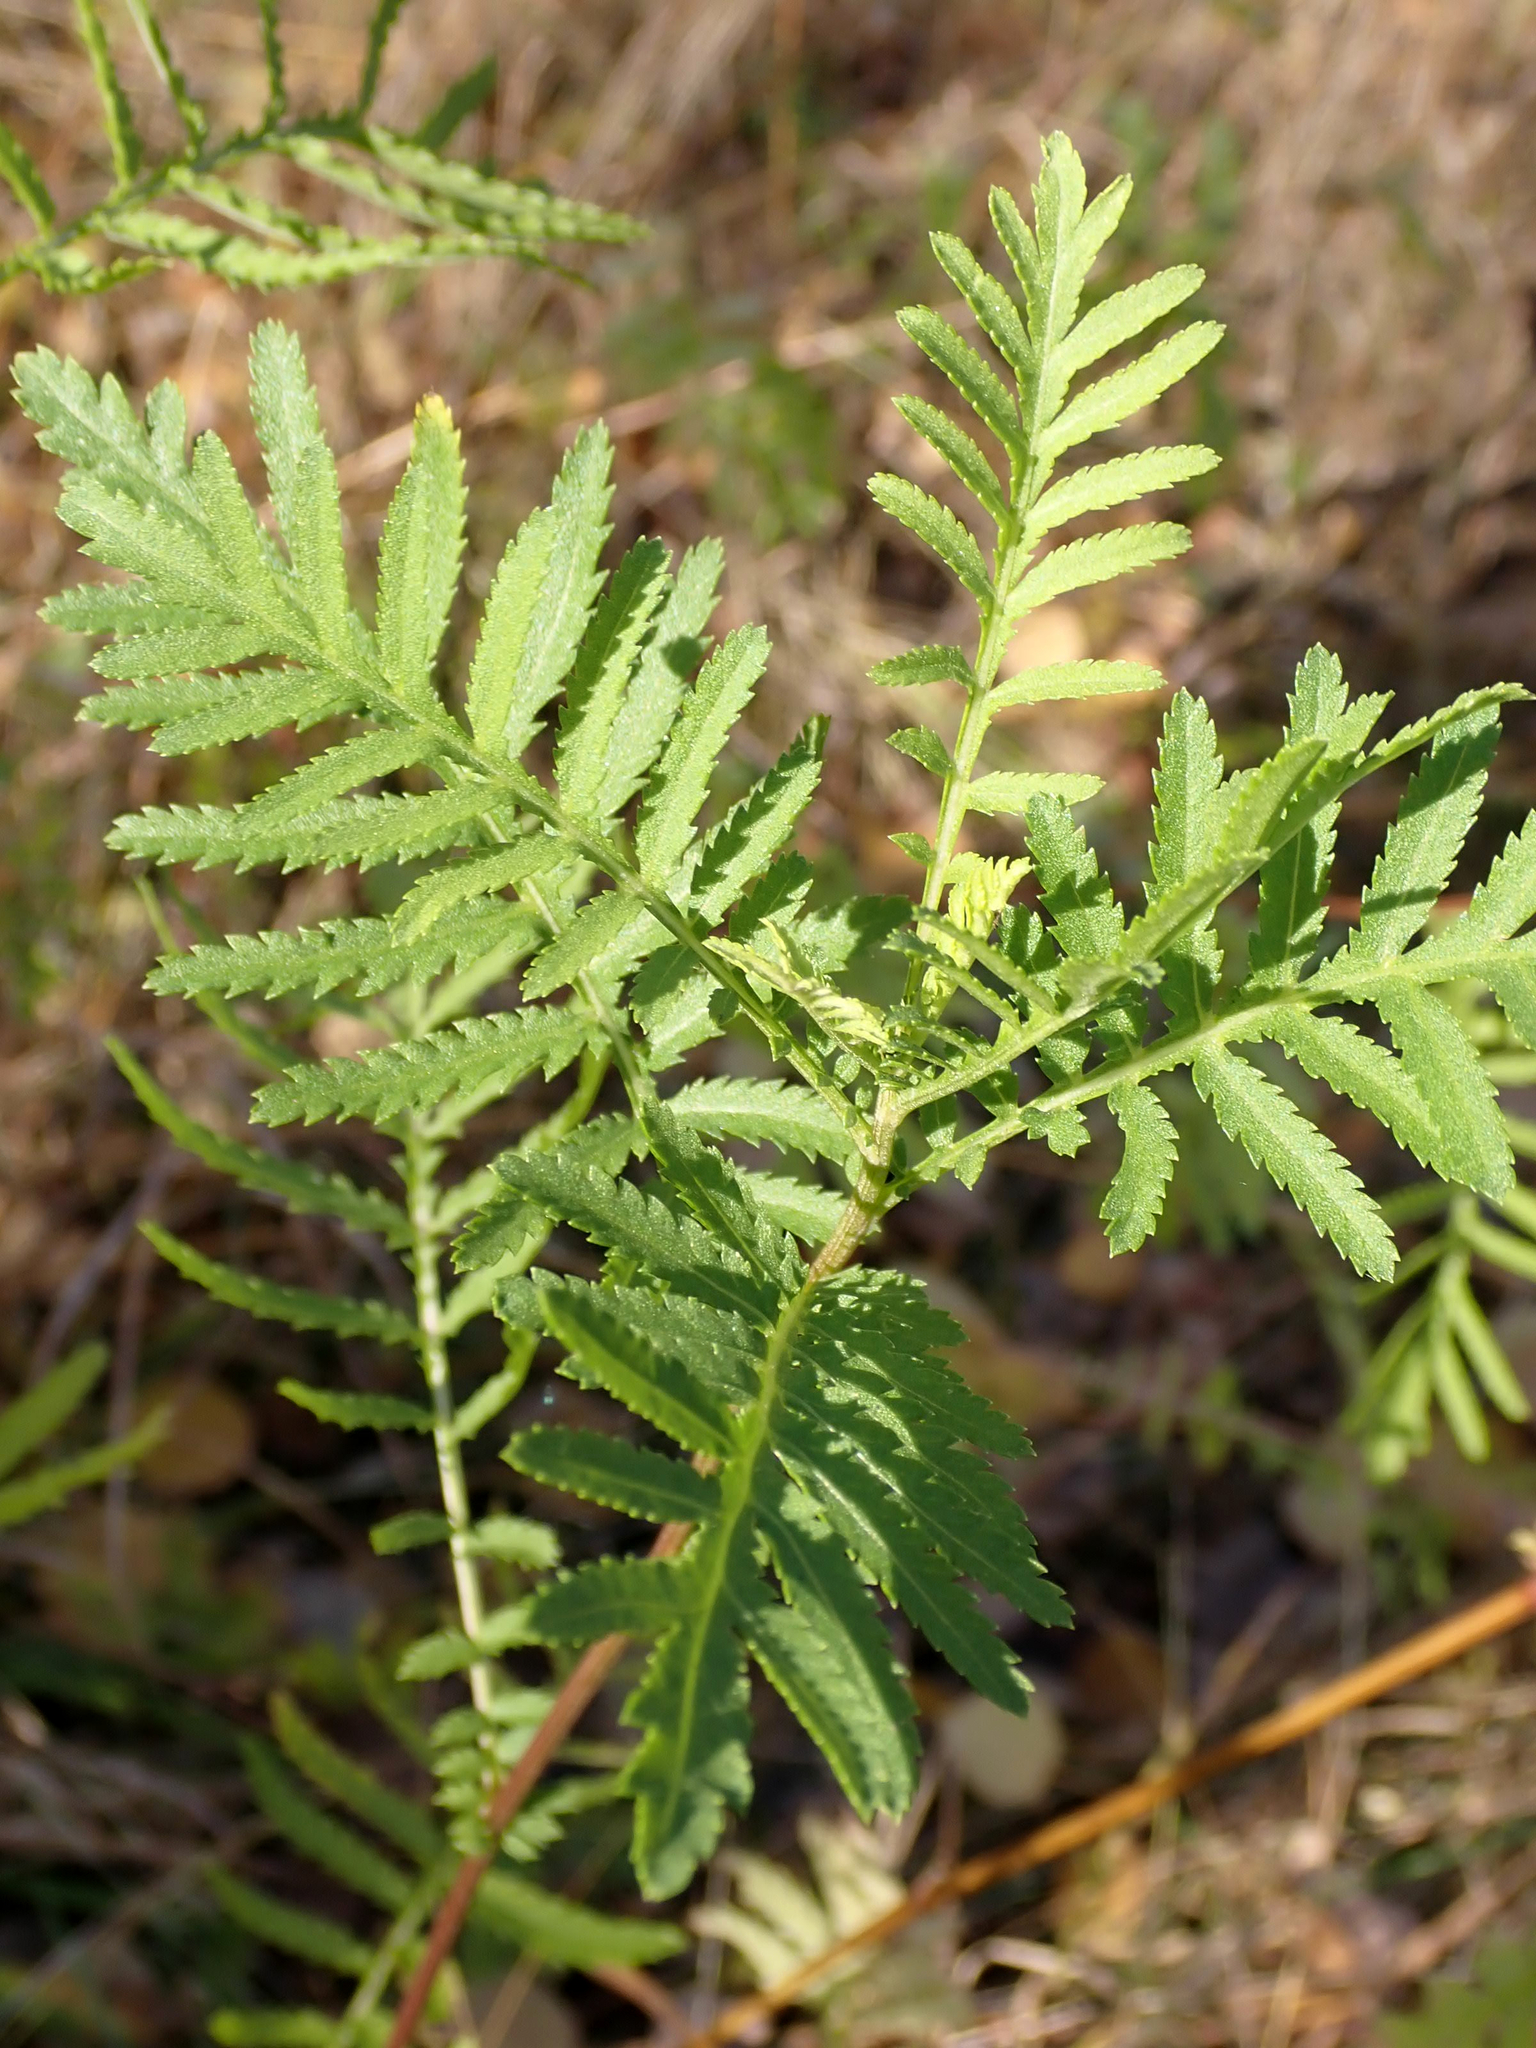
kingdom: Plantae
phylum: Tracheophyta
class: Magnoliopsida
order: Asterales
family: Asteraceae
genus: Tanacetum
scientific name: Tanacetum vulgare
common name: Common tansy
